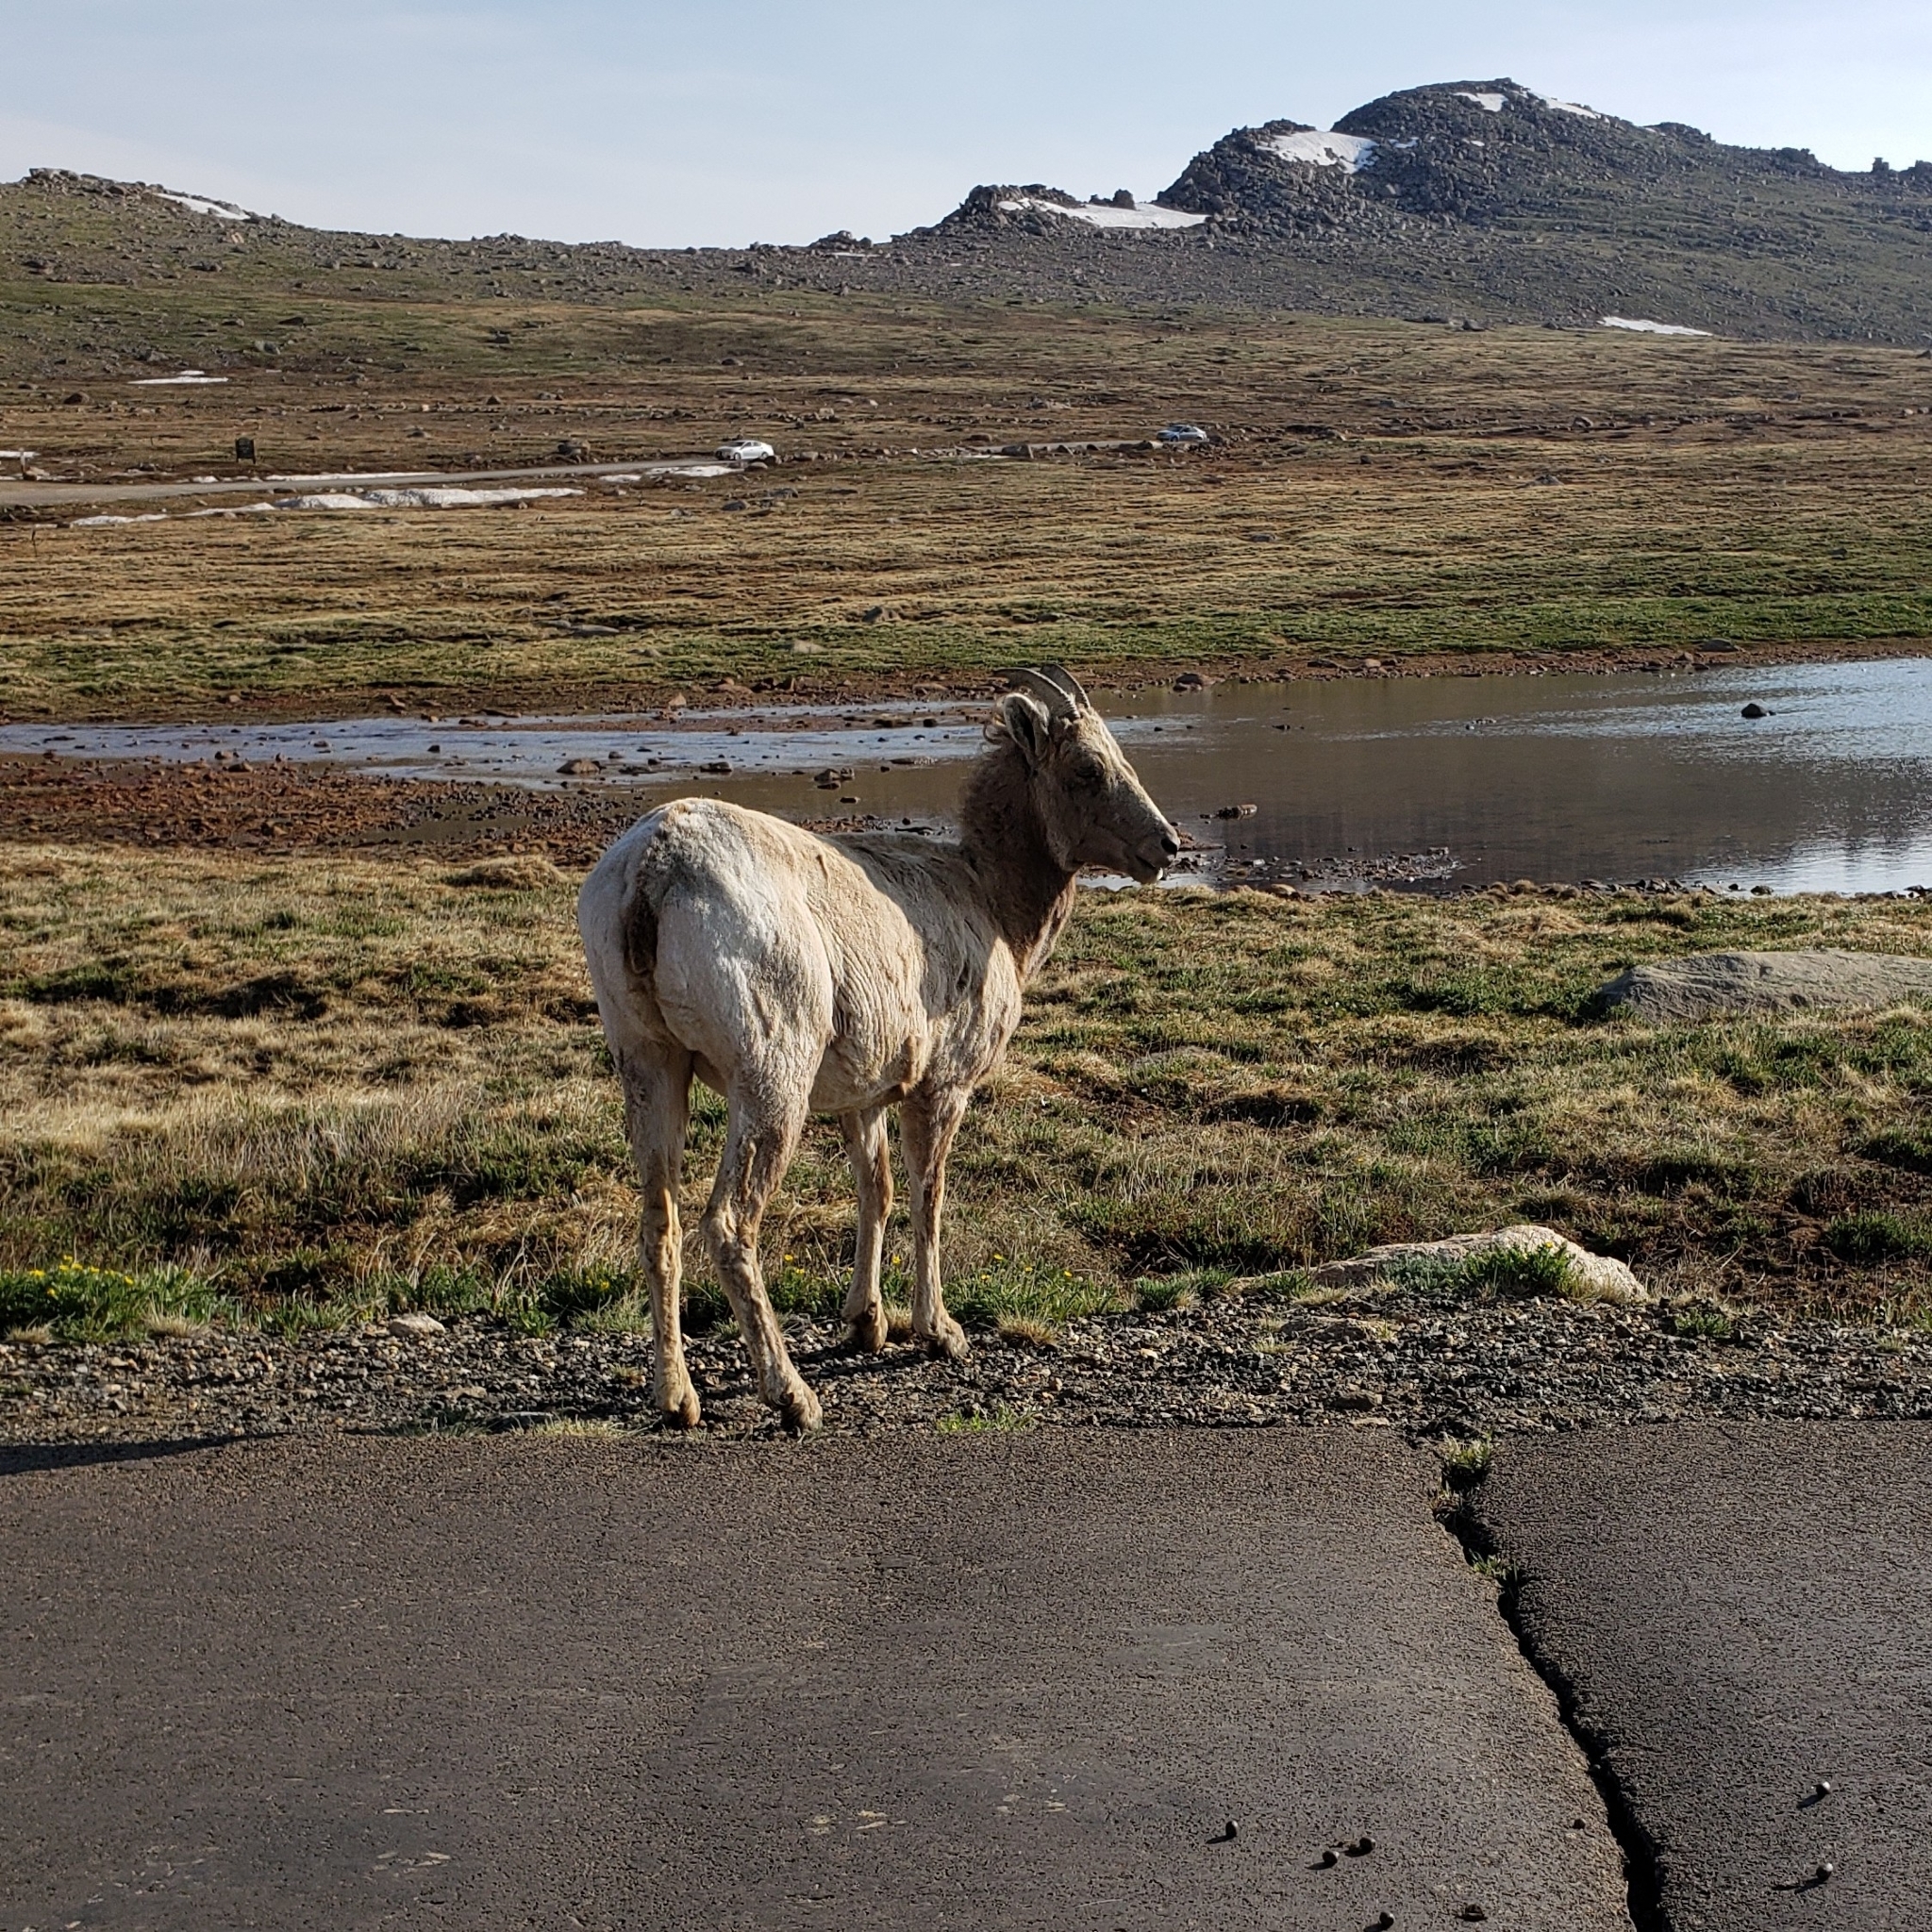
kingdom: Animalia
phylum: Chordata
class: Mammalia
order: Artiodactyla
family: Bovidae
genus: Ovis
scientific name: Ovis canadensis
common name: Bighorn sheep
